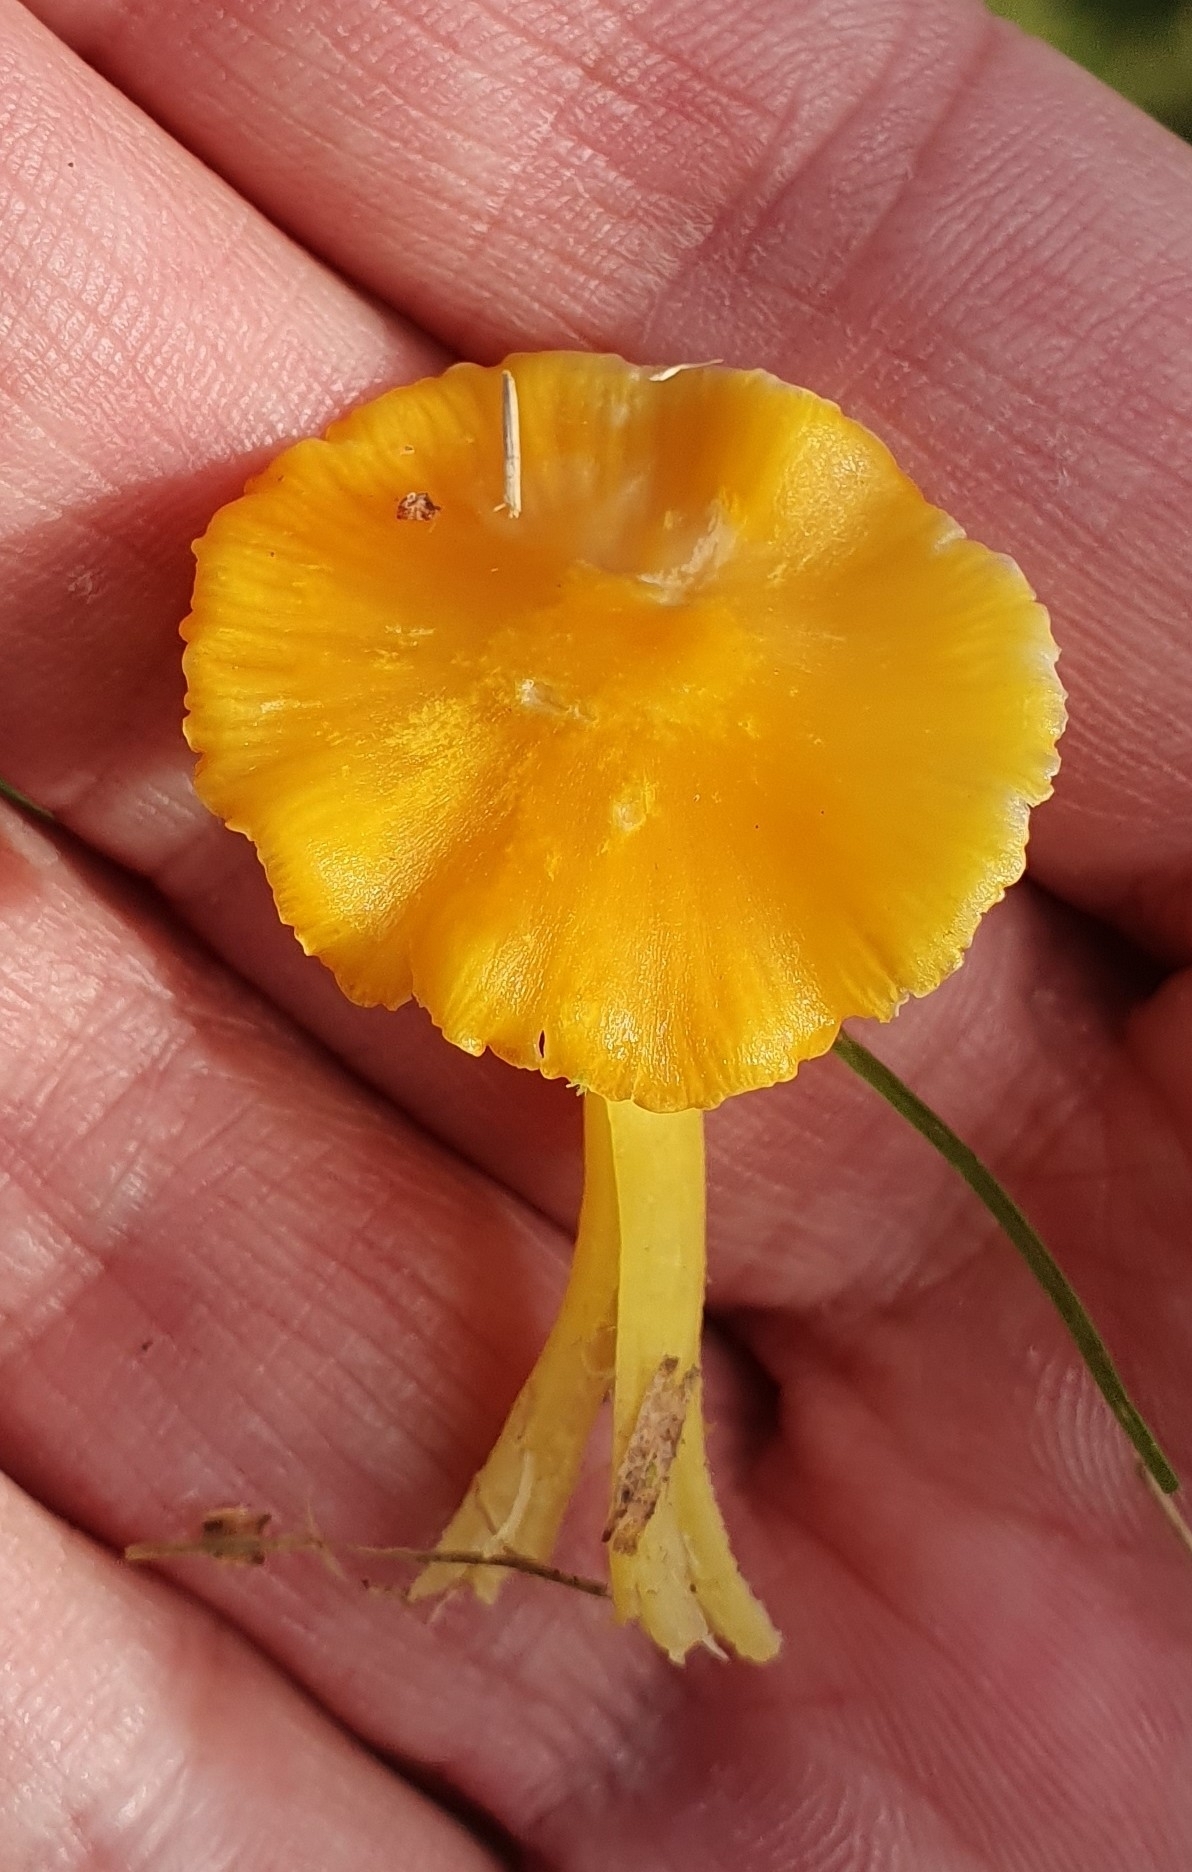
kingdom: Fungi
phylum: Basidiomycota
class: Agaricomycetes
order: Agaricales
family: Hygrophoraceae
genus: Hygrocybe
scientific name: Hygrocybe ceracea
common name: Butter waxcap
